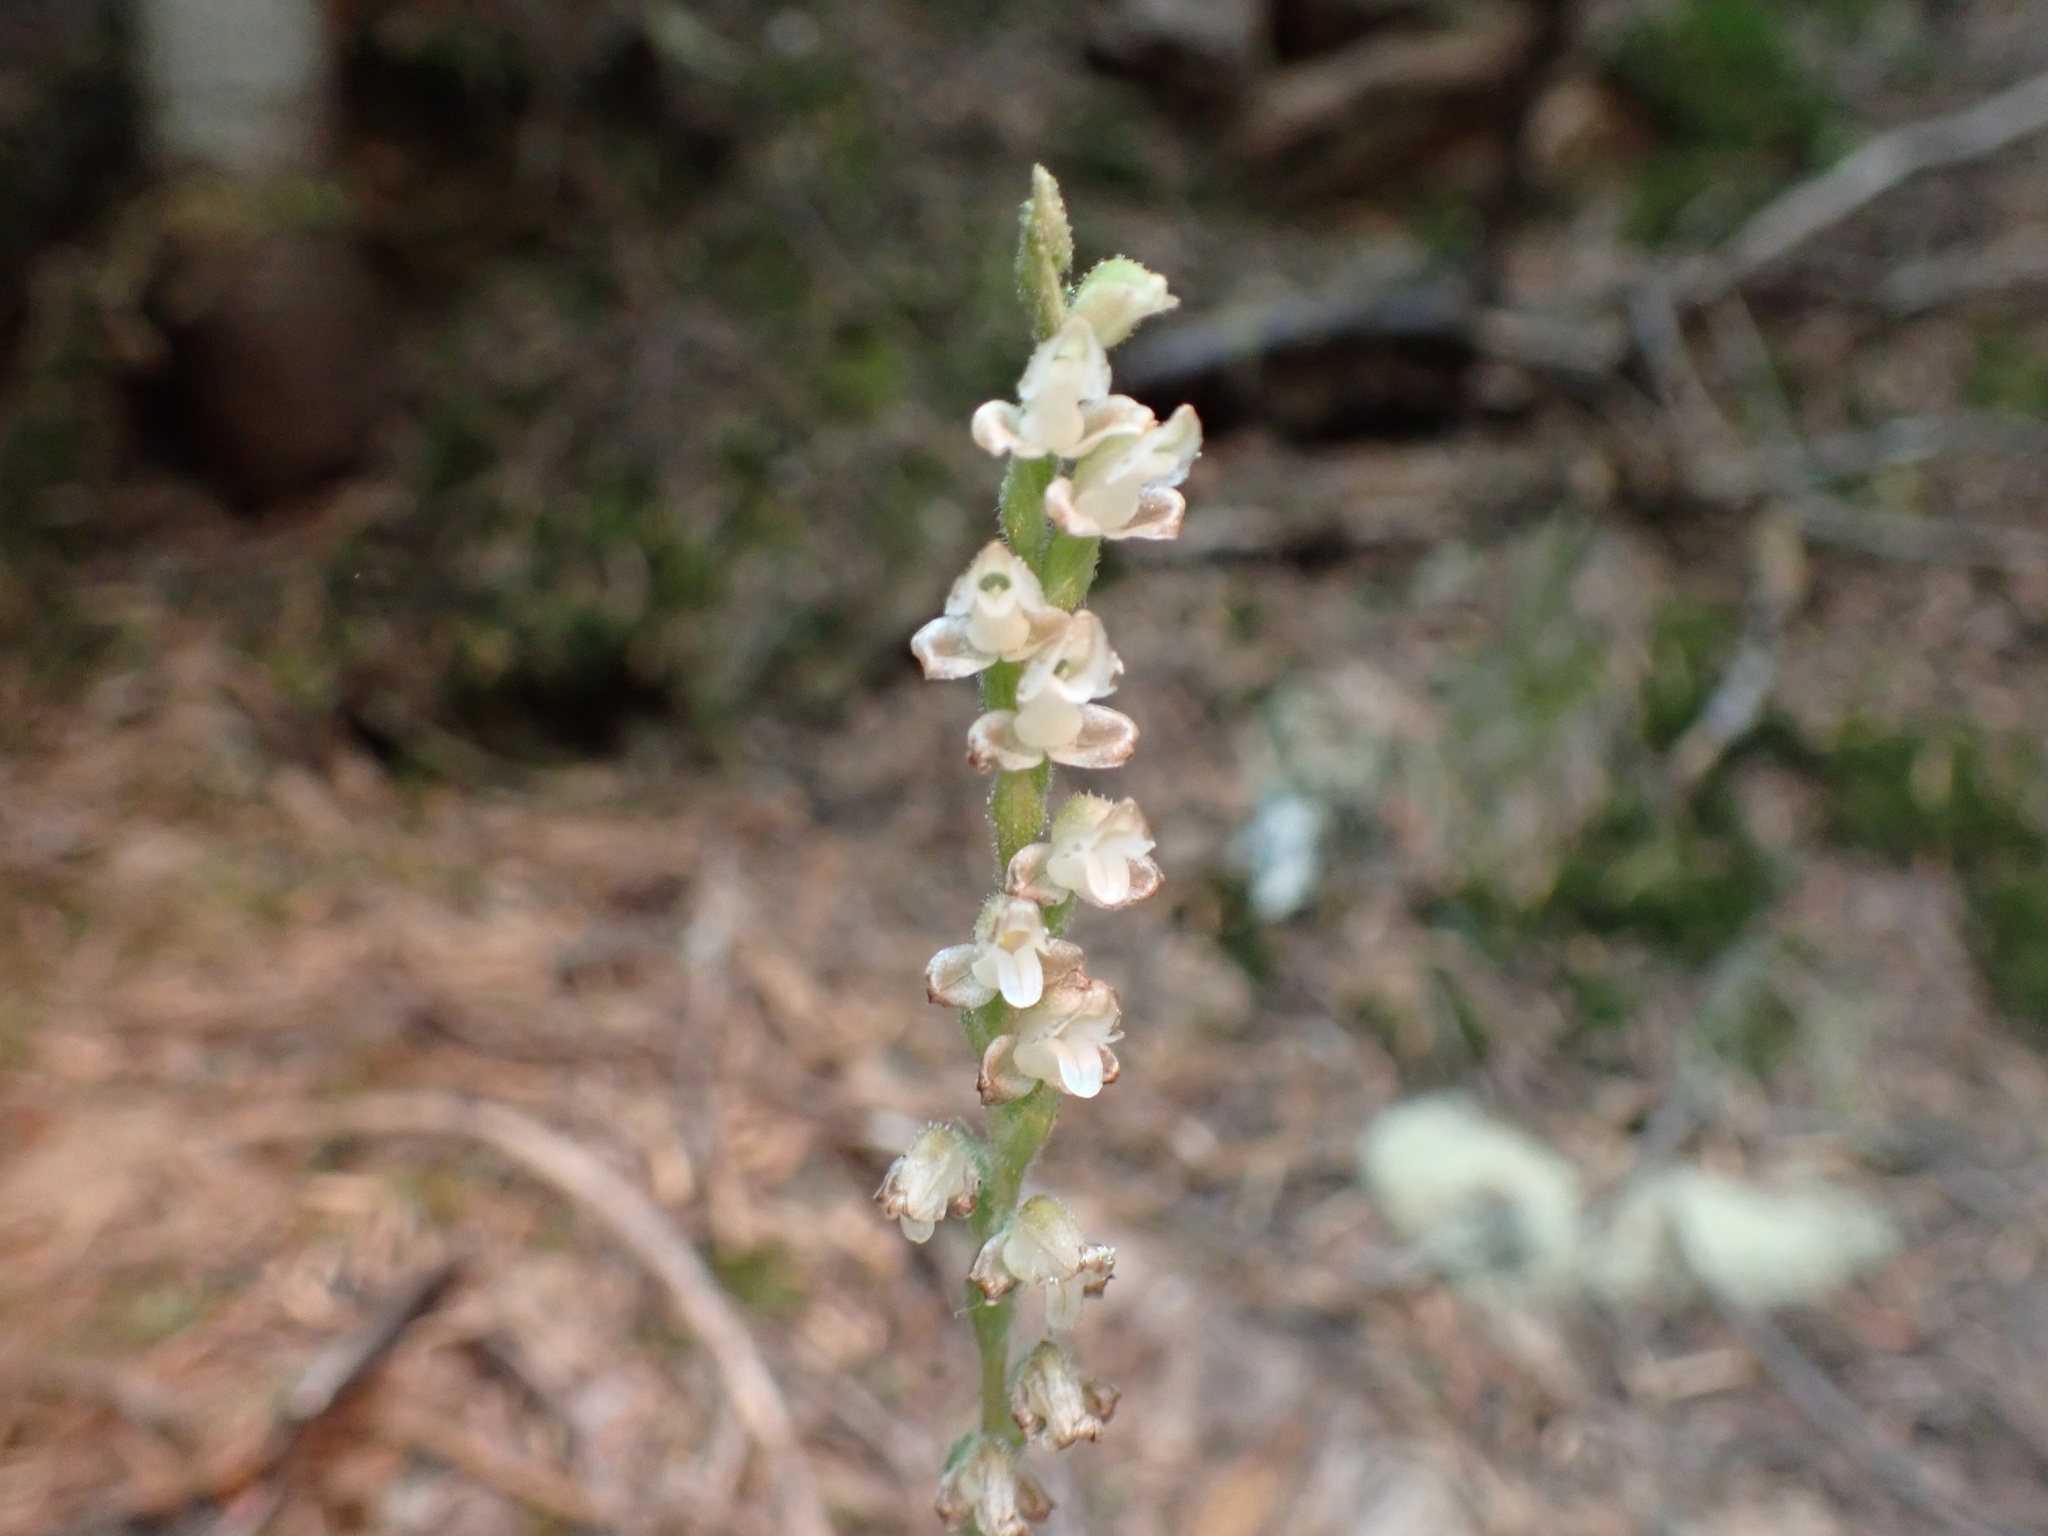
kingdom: Plantae
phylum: Tracheophyta
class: Liliopsida
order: Asparagales
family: Orchidaceae
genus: Goodyera
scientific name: Goodyera oblongifolia
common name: Giant rattlesnake-plantain
